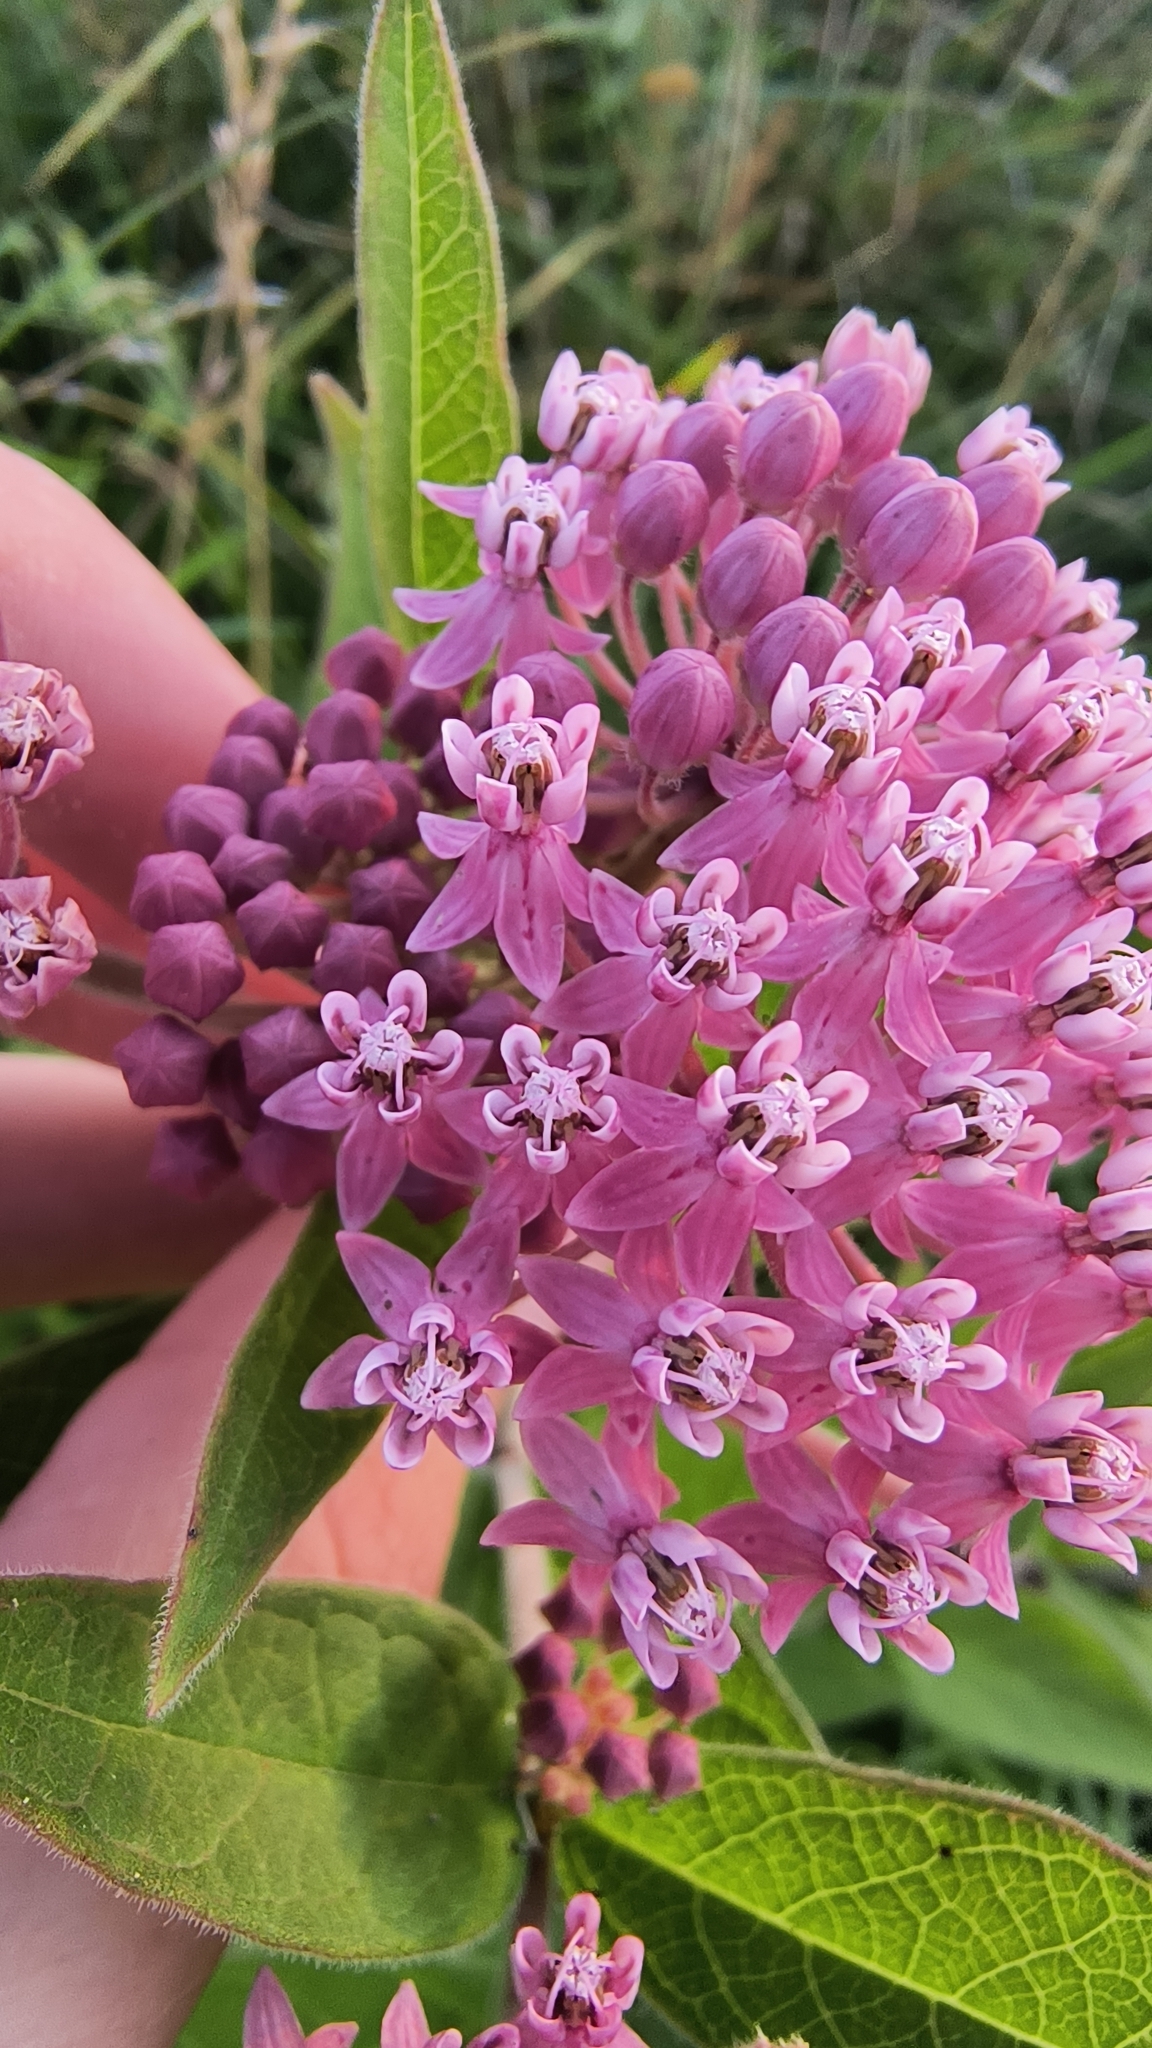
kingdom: Plantae
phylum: Tracheophyta
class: Magnoliopsida
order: Gentianales
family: Apocynaceae
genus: Asclepias
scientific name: Asclepias incarnata
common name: Swamp milkweed
